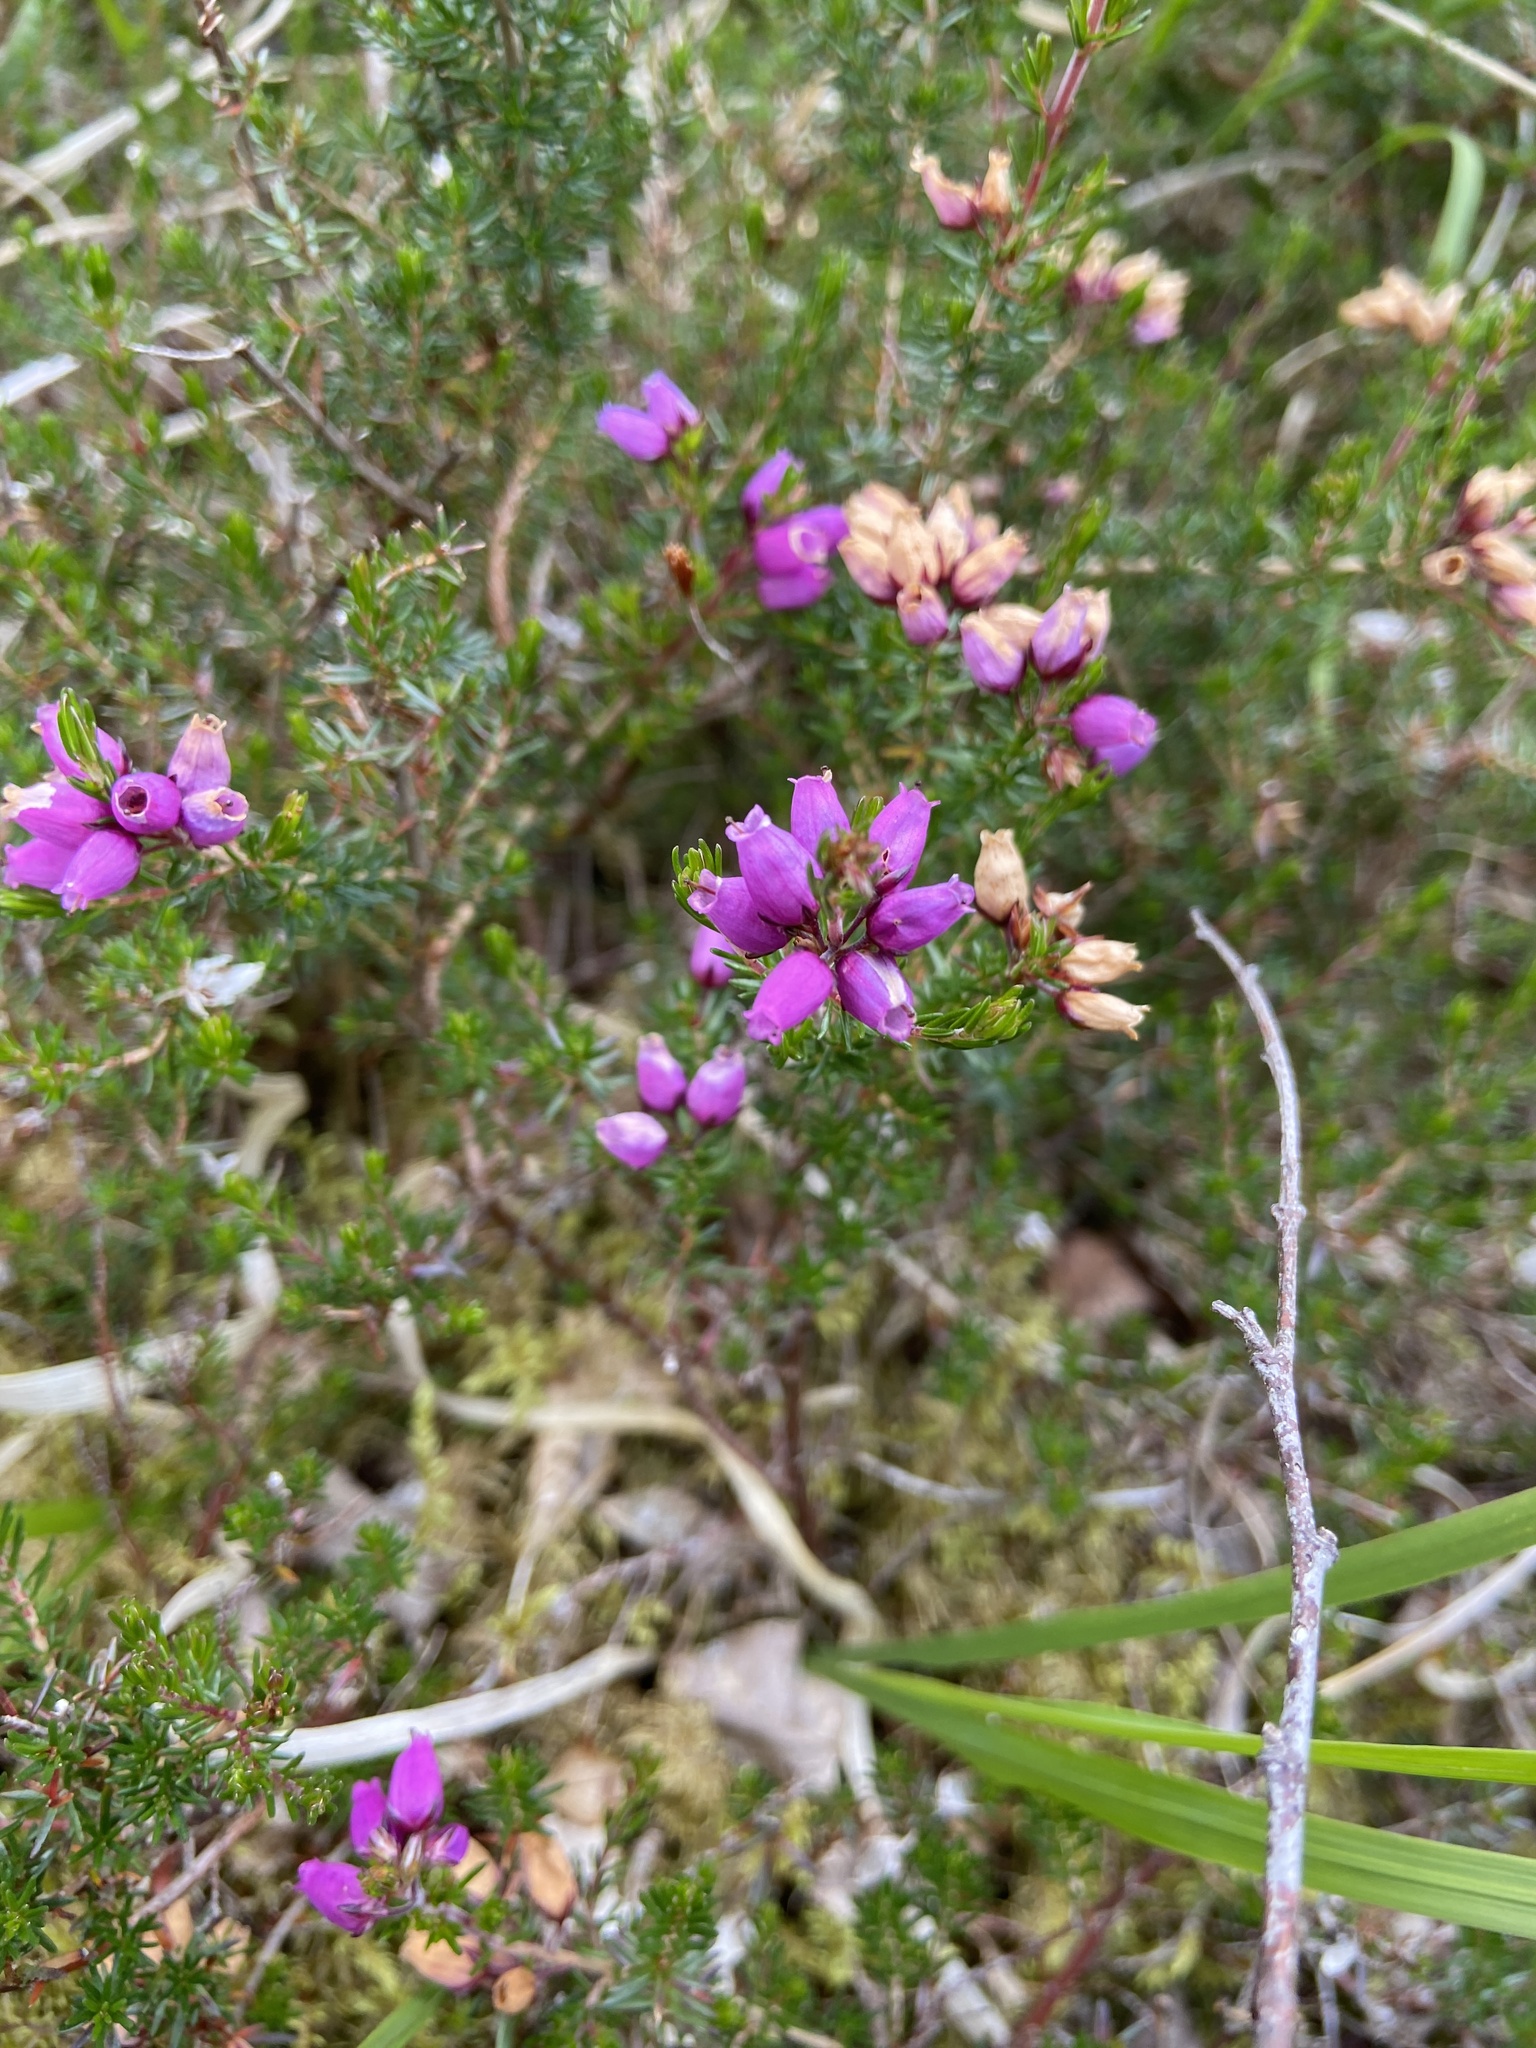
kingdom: Plantae
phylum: Tracheophyta
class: Magnoliopsida
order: Ericales
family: Ericaceae
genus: Erica
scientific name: Erica cinerea
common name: Bell heather
